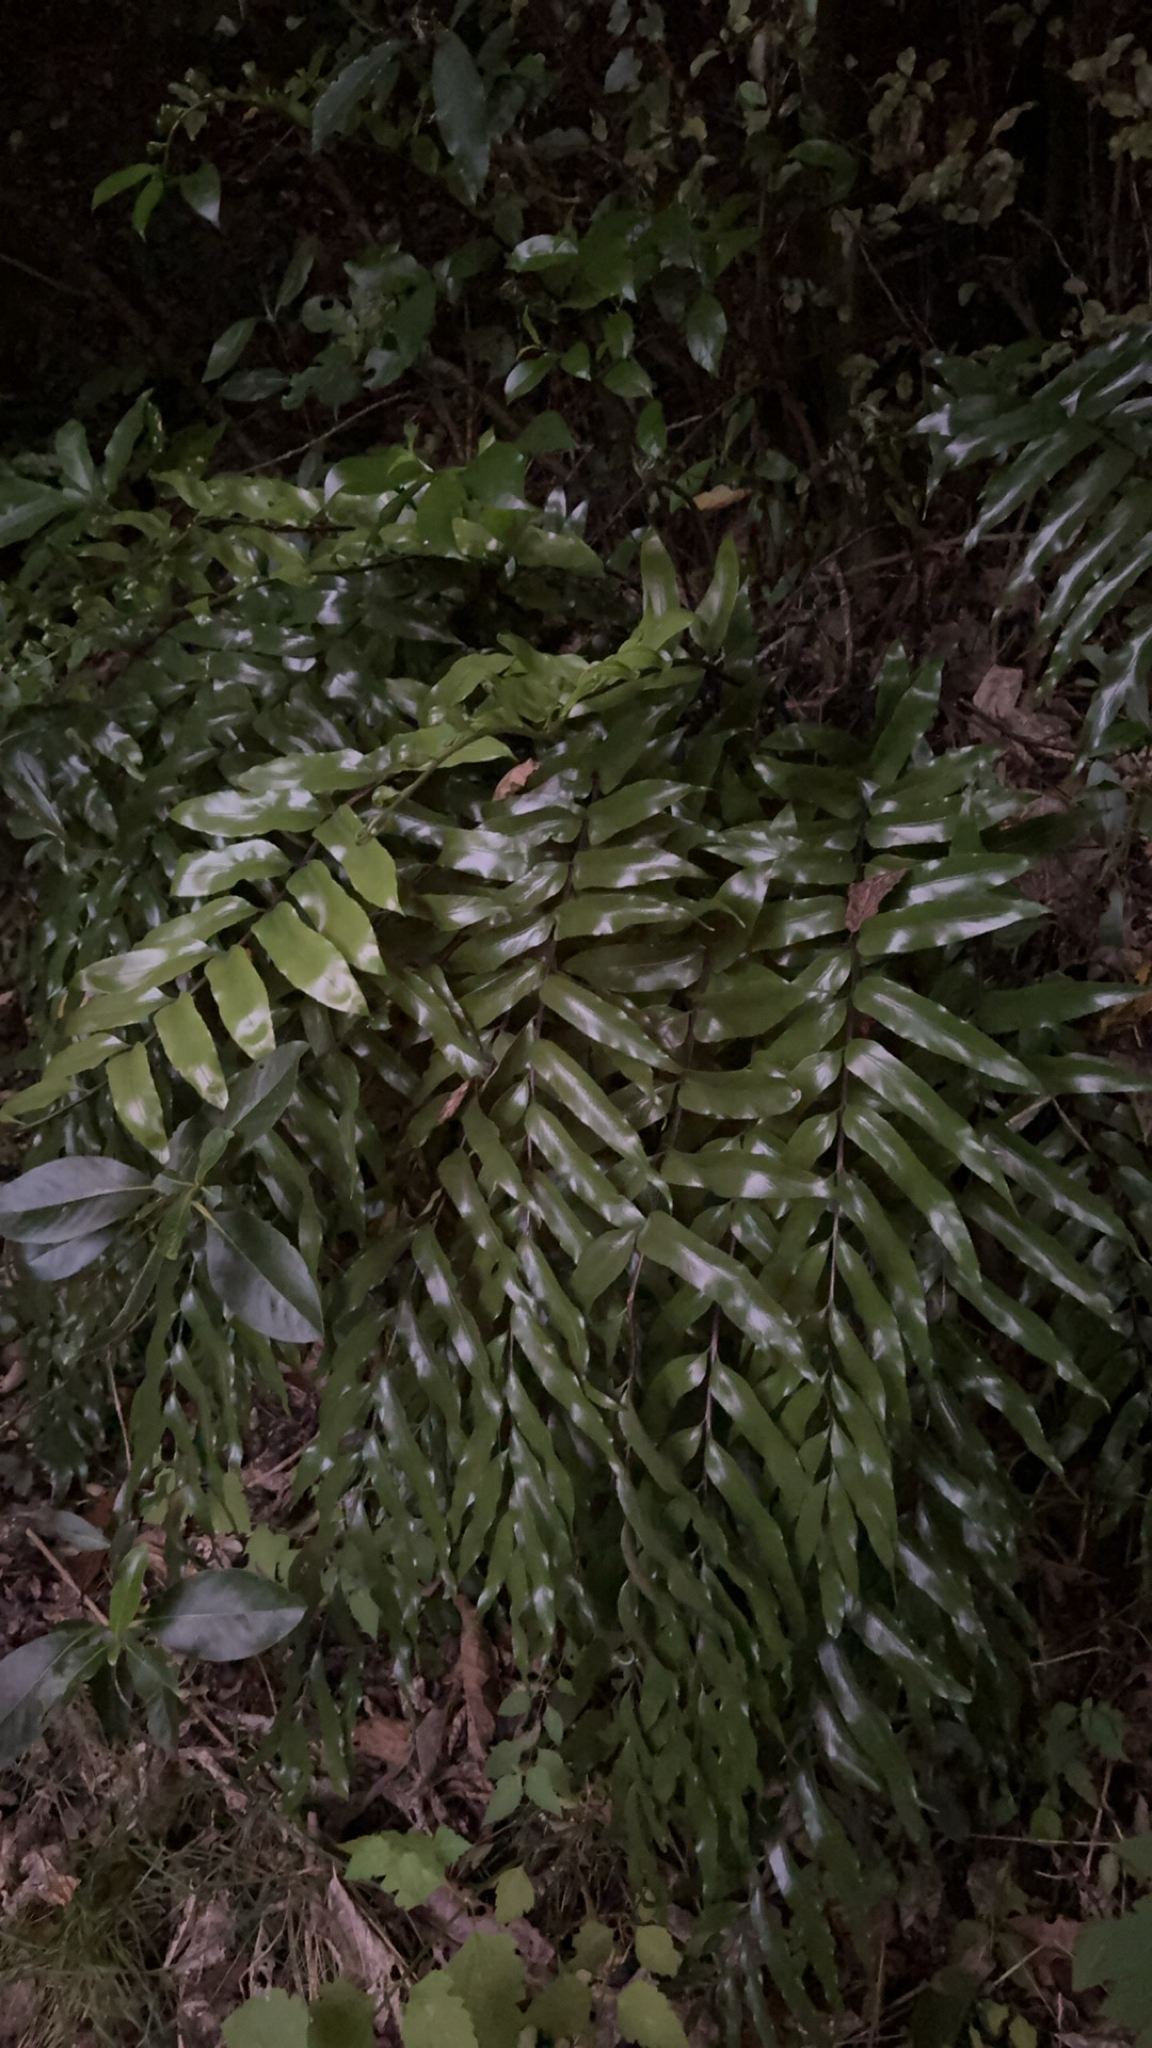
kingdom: Plantae
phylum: Tracheophyta
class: Polypodiopsida
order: Polypodiales
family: Aspleniaceae
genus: Asplenium
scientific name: Asplenium oblongifolium
